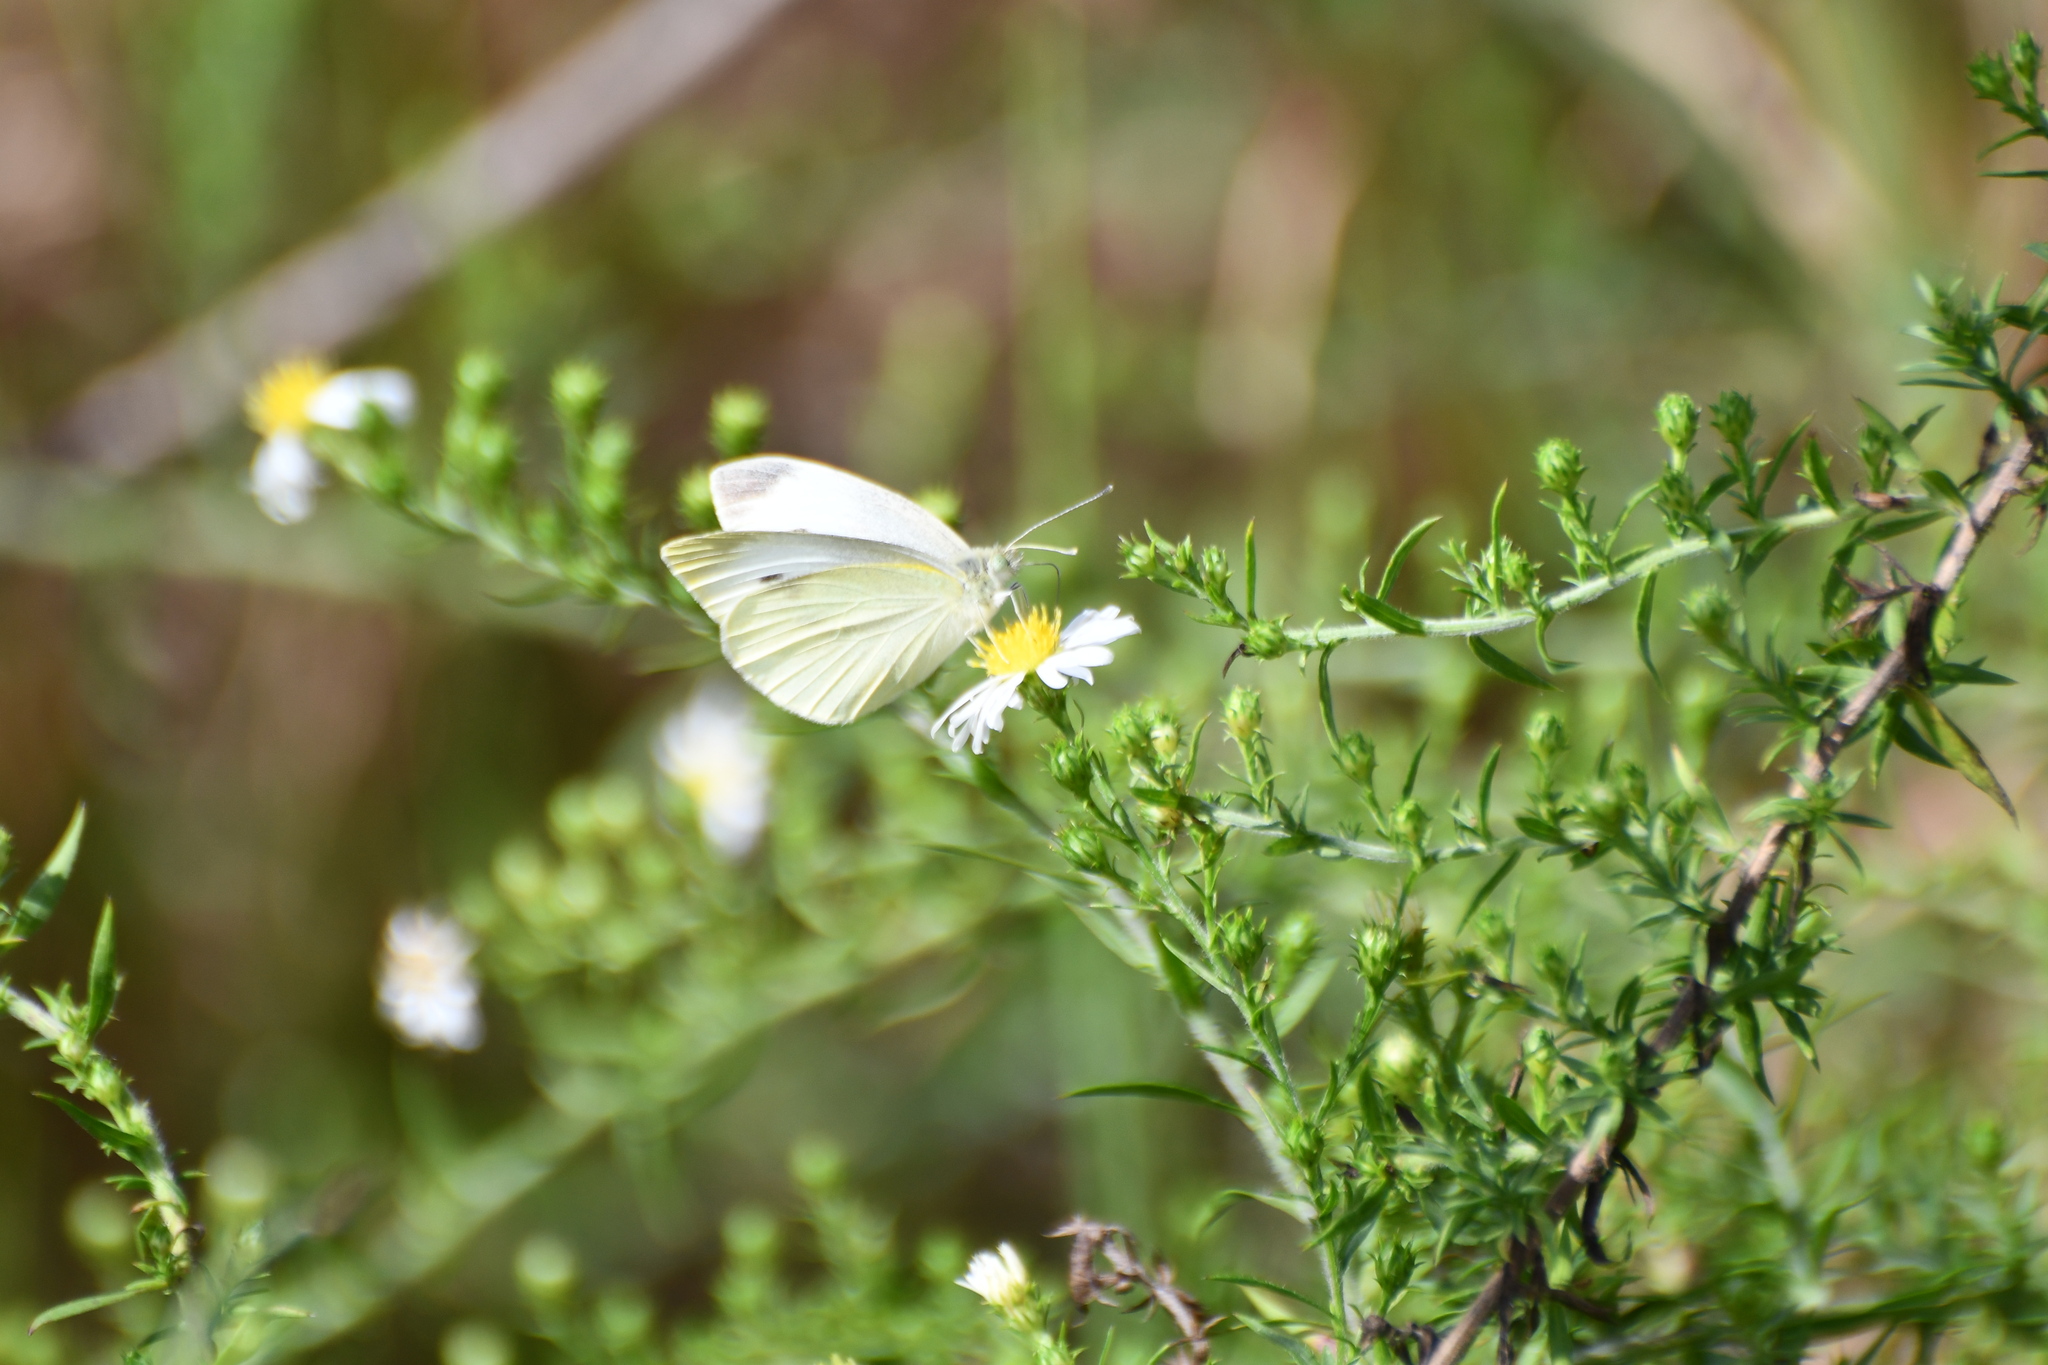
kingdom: Animalia
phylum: Arthropoda
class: Insecta
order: Lepidoptera
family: Pieridae
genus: Pieris
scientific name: Pieris rapae
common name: Small white
